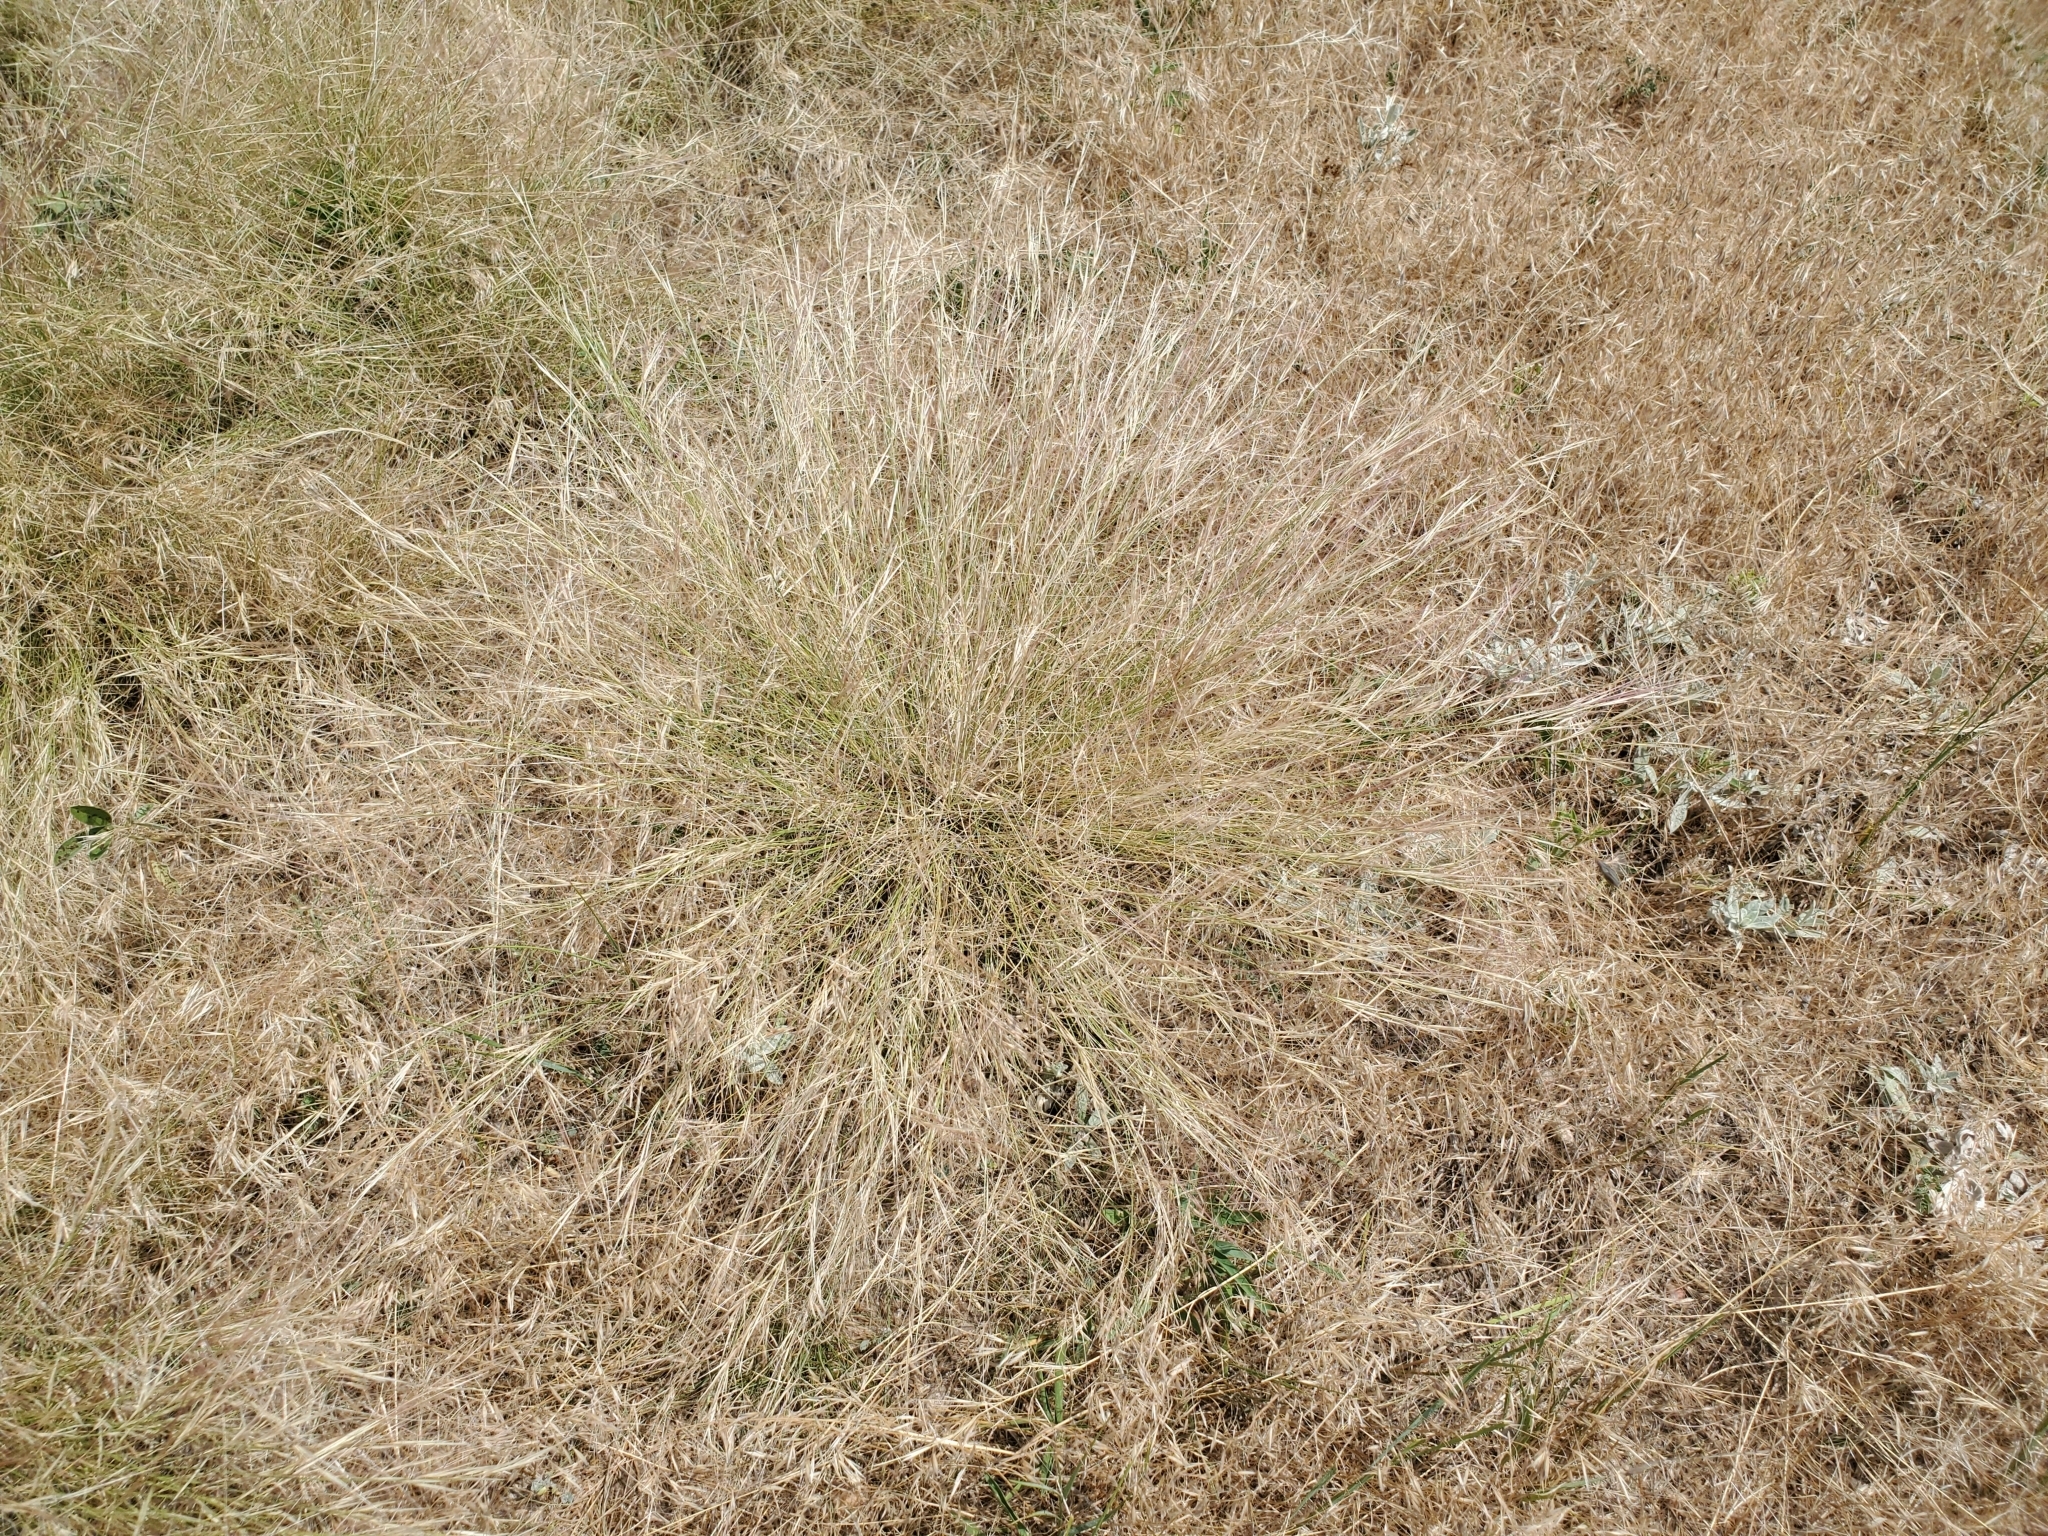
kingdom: Plantae
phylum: Tracheophyta
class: Liliopsida
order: Poales
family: Poaceae
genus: Aristida
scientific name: Aristida purpurea
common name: Purple threeawn
